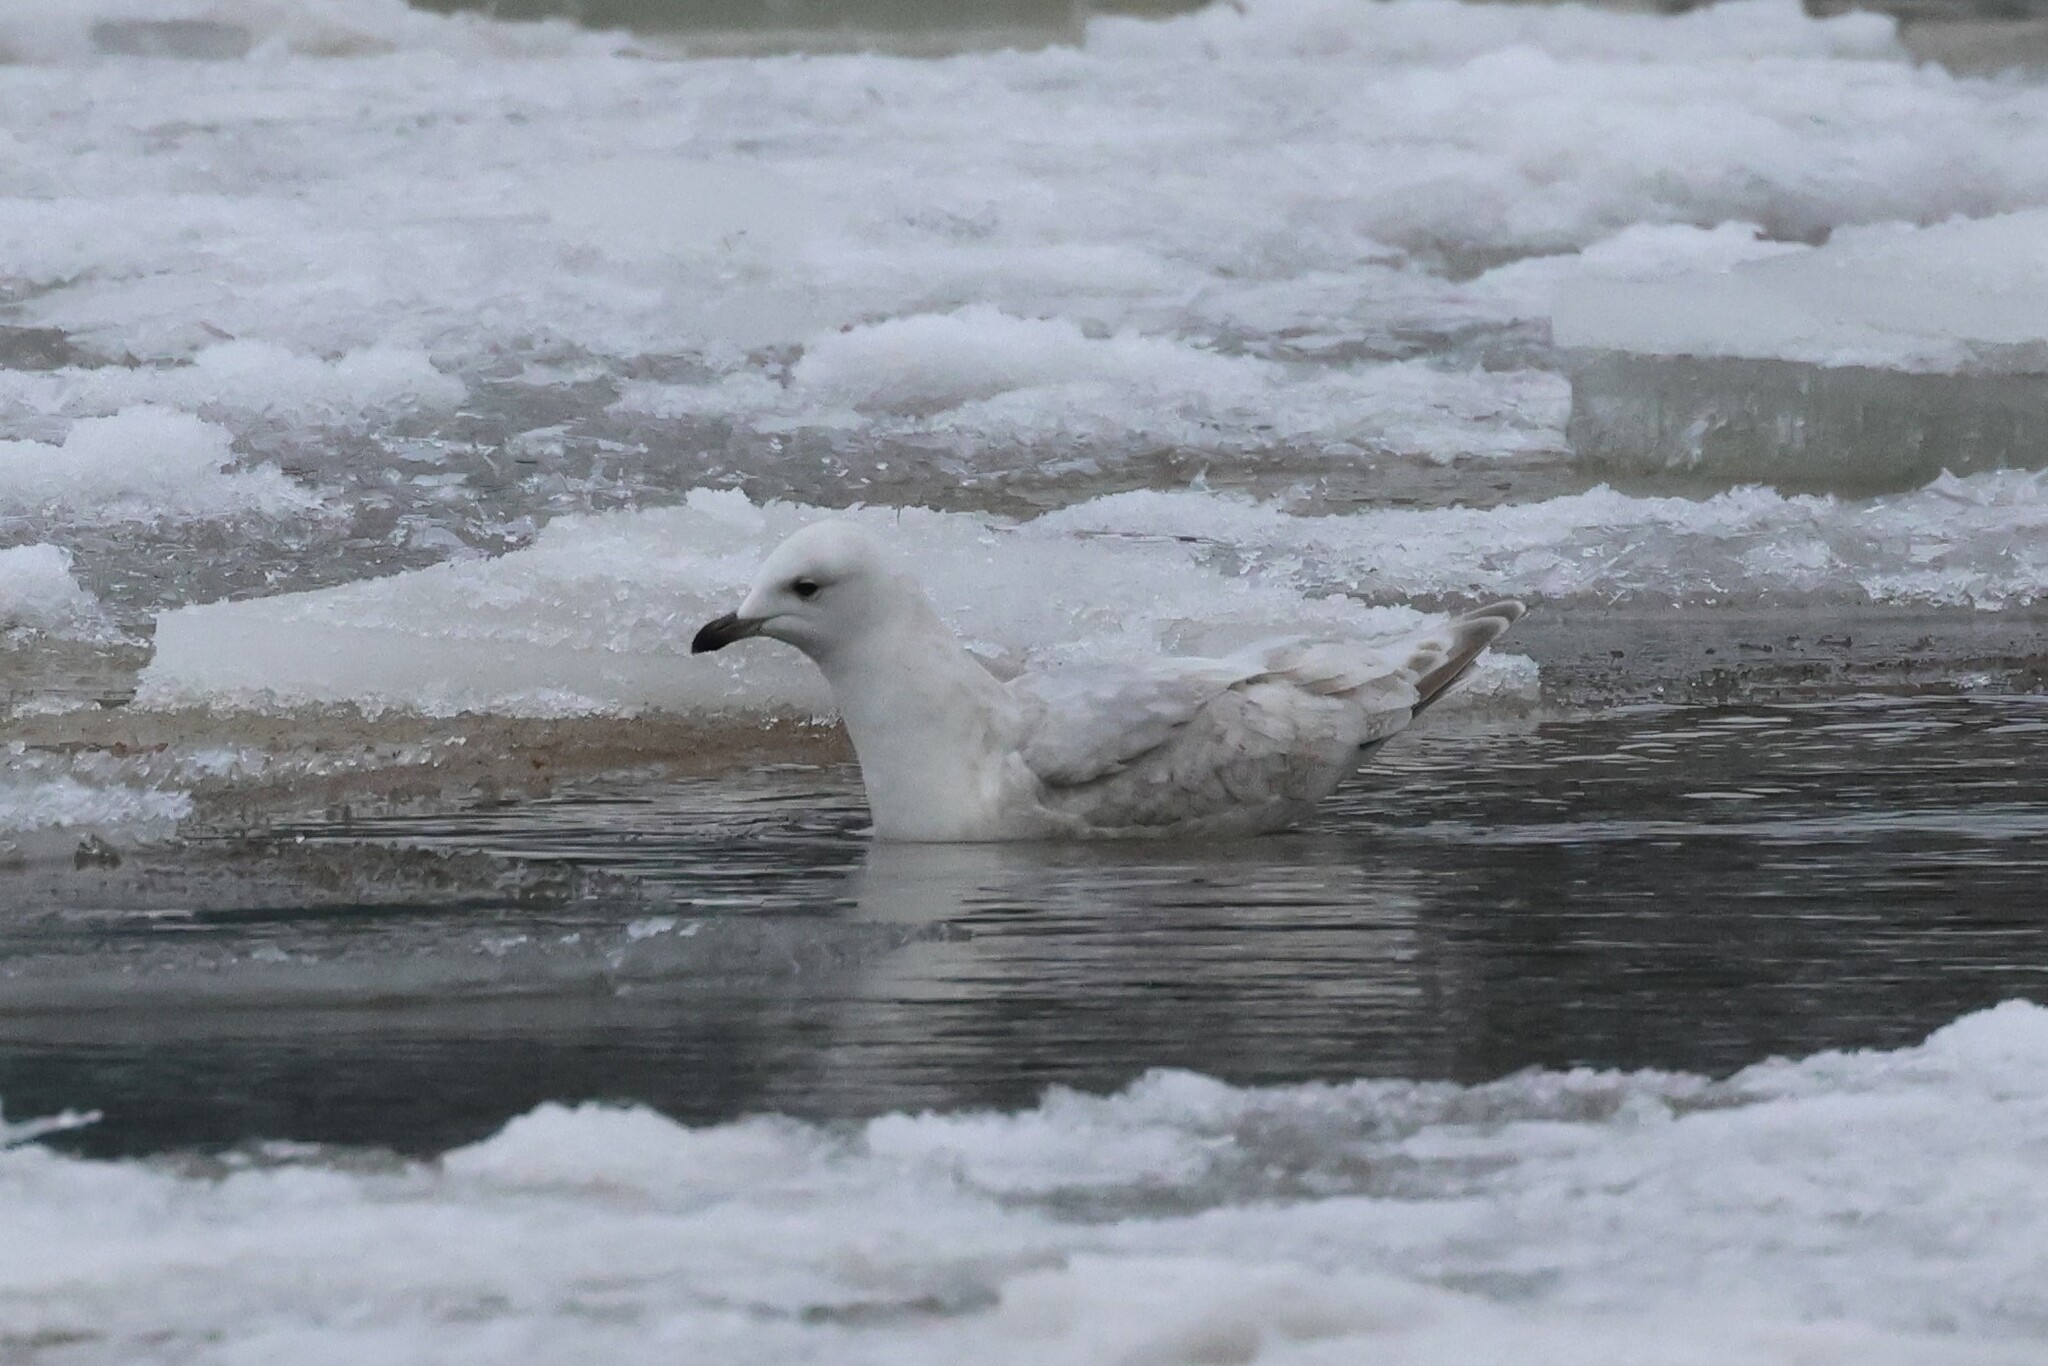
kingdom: Animalia
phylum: Chordata
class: Aves
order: Charadriiformes
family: Laridae
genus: Larus
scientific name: Larus glaucoides
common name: Iceland gull
